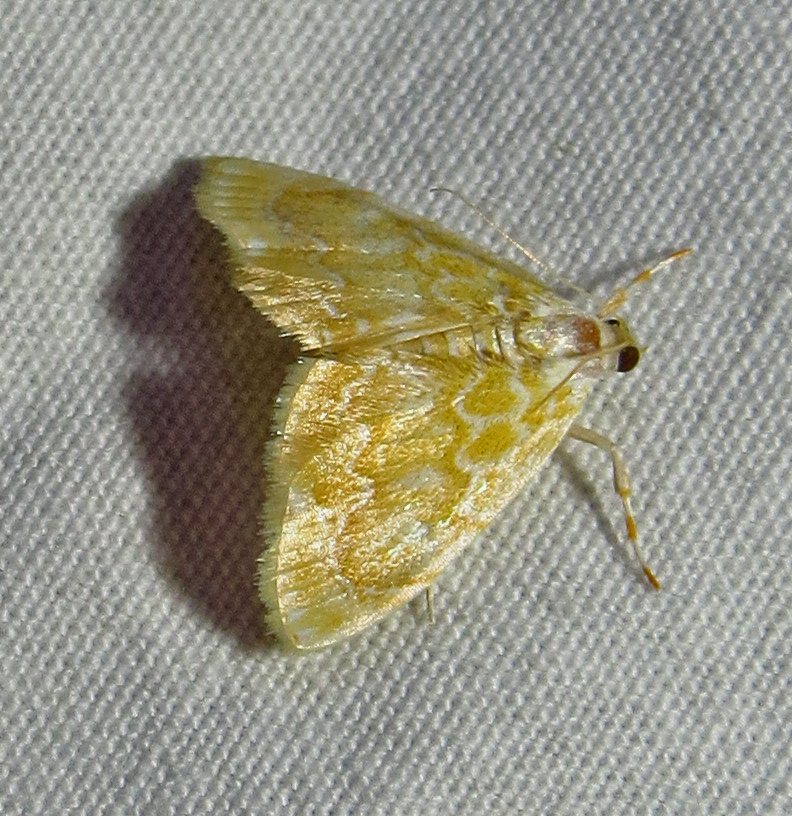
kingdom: Animalia
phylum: Arthropoda
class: Insecta
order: Lepidoptera
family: Crambidae
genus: Glaphyria
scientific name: Glaphyria glaphyralis
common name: Common glaphyria moth
